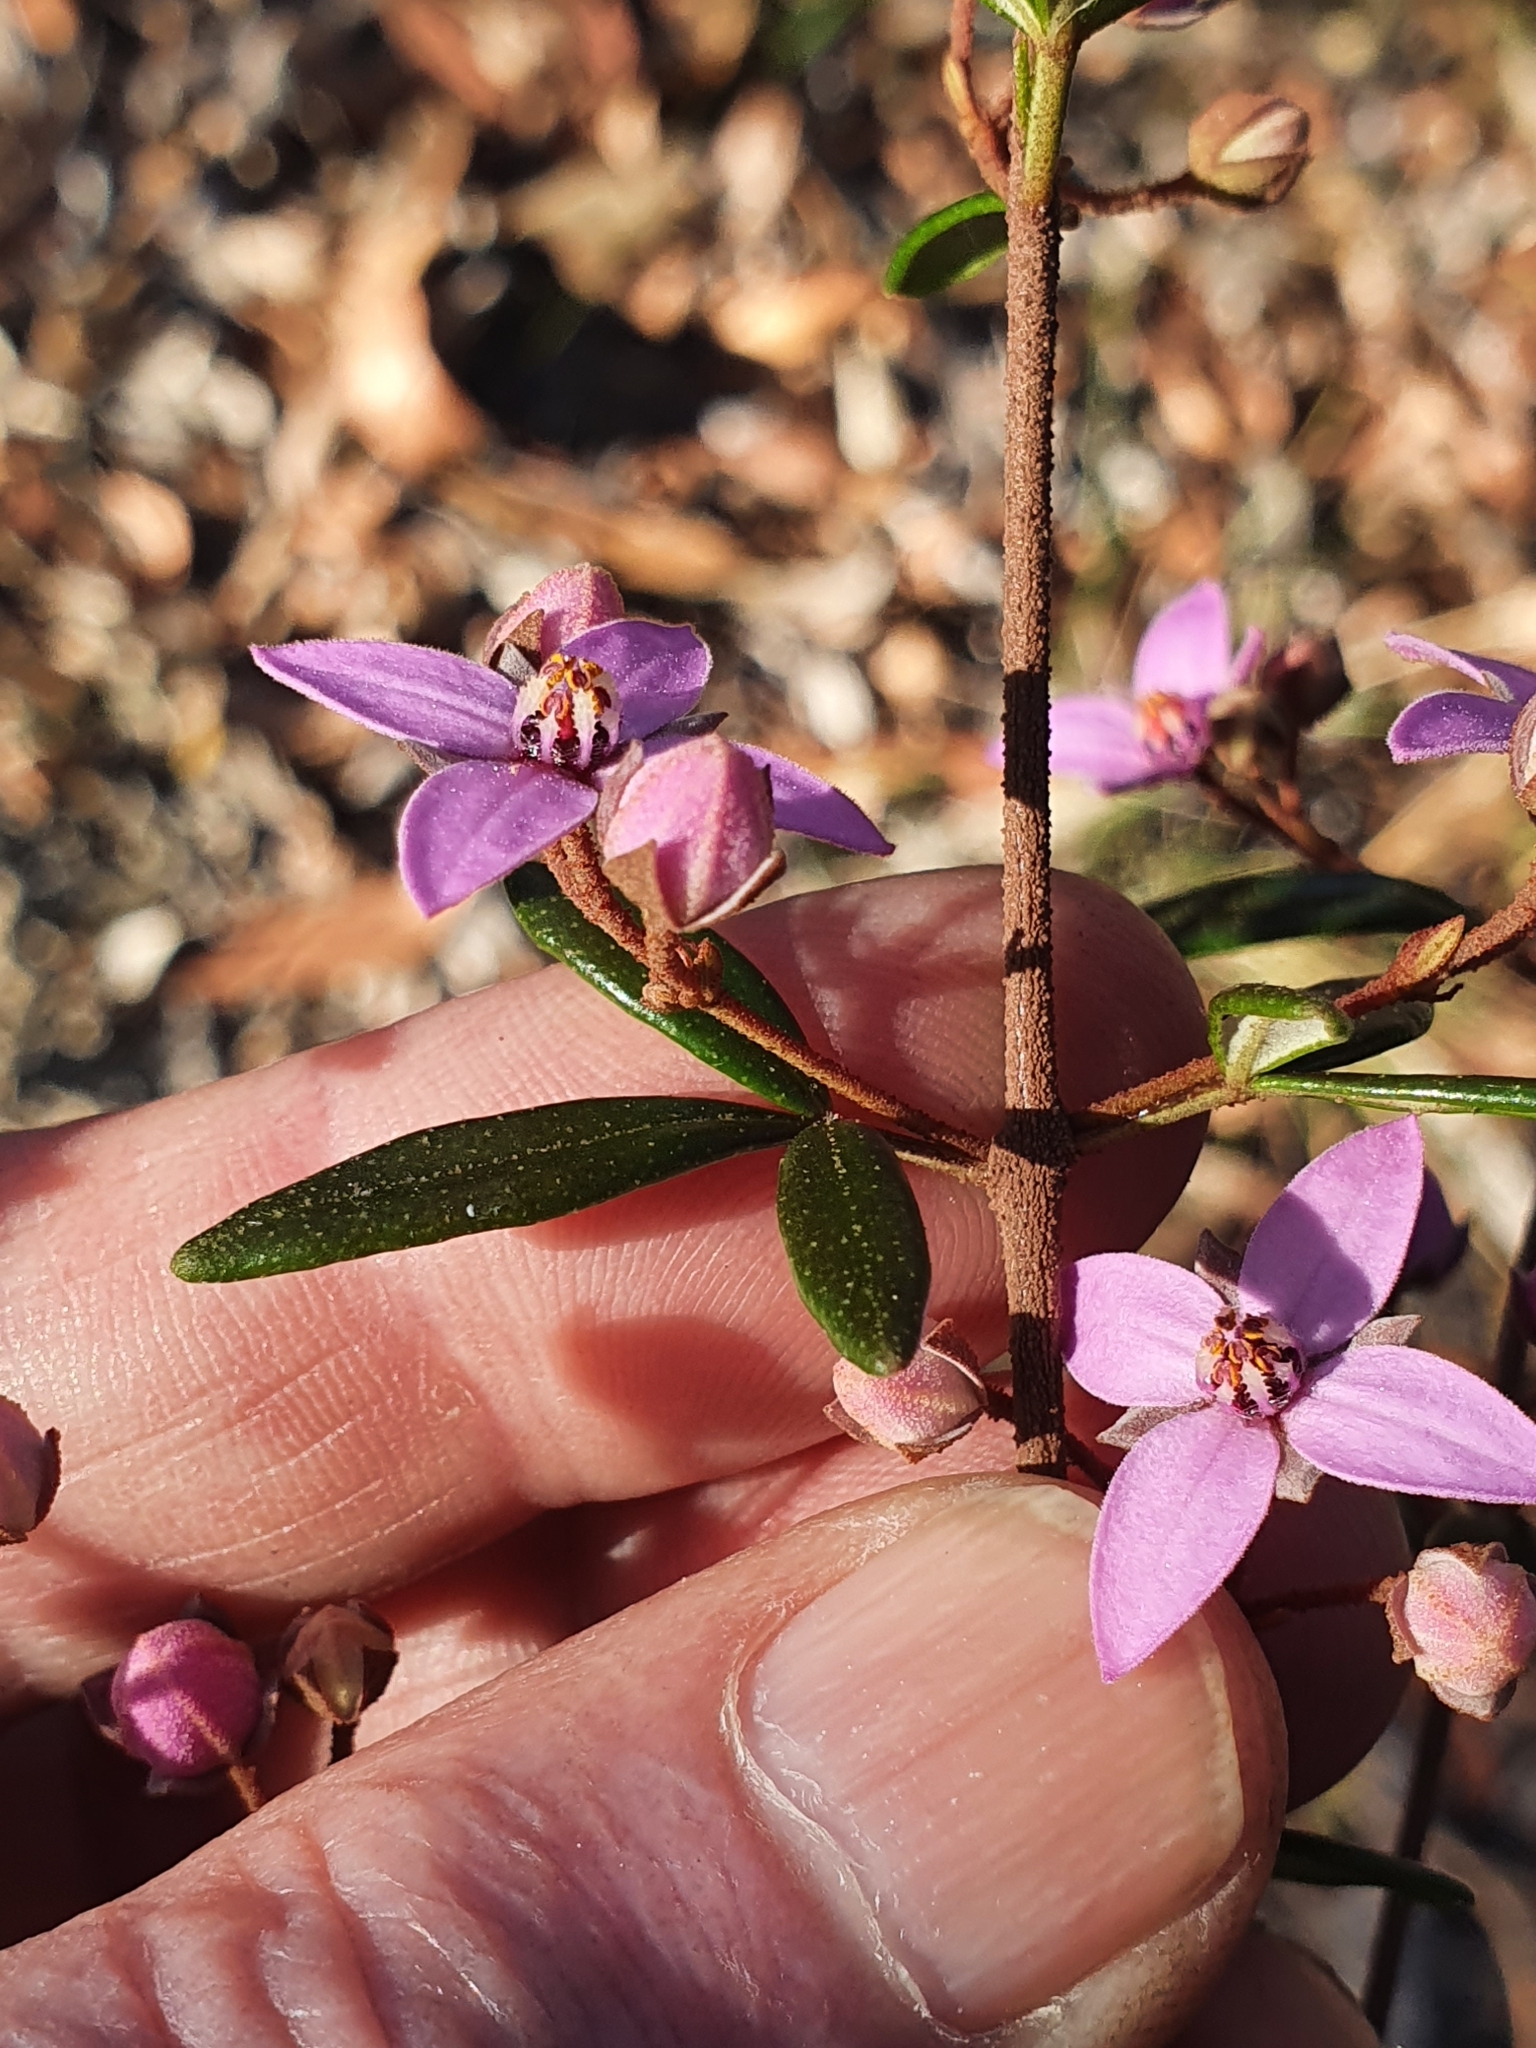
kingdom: Plantae
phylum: Tracheophyta
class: Magnoliopsida
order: Sapindales
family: Rutaceae
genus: Boronia
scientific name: Boronia ledifolia
